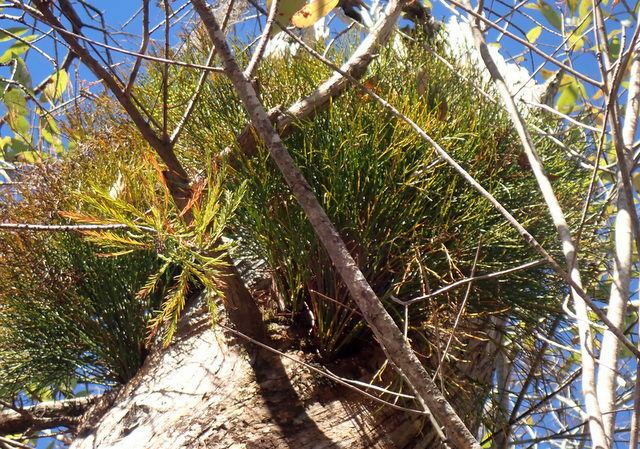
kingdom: Plantae
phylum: Tracheophyta
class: Polypodiopsida
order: Psilotales
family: Psilotaceae
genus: Psilotum
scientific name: Psilotum nudum
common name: Skeleton fork fern
